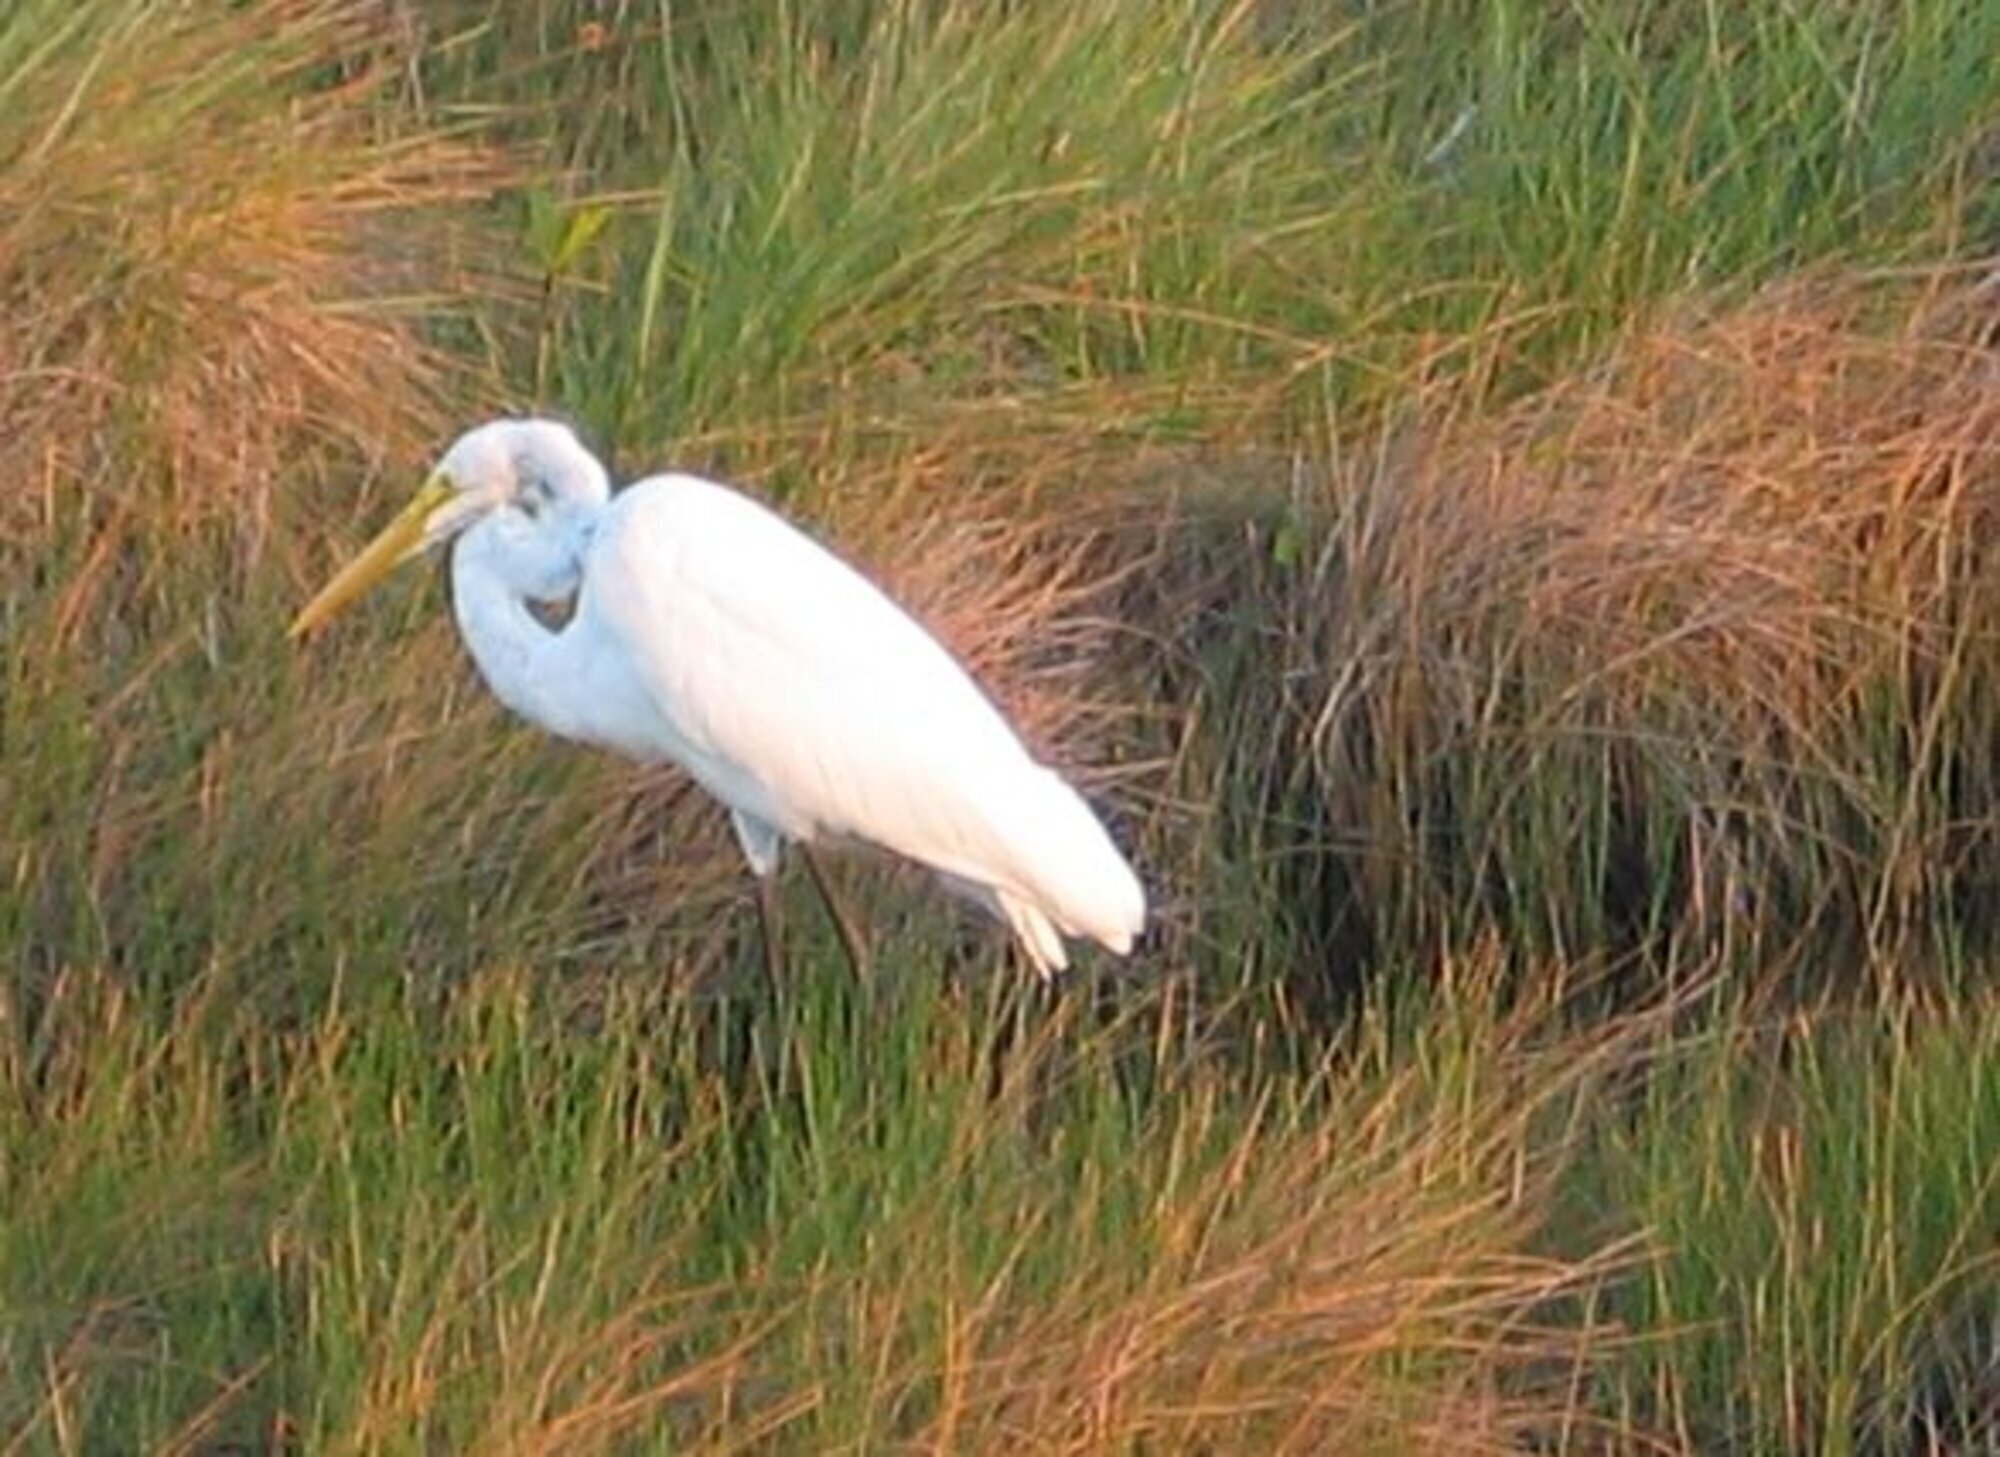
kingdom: Animalia
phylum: Chordata
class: Aves
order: Pelecaniformes
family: Ardeidae
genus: Ardea
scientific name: Ardea alba
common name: Great egret
